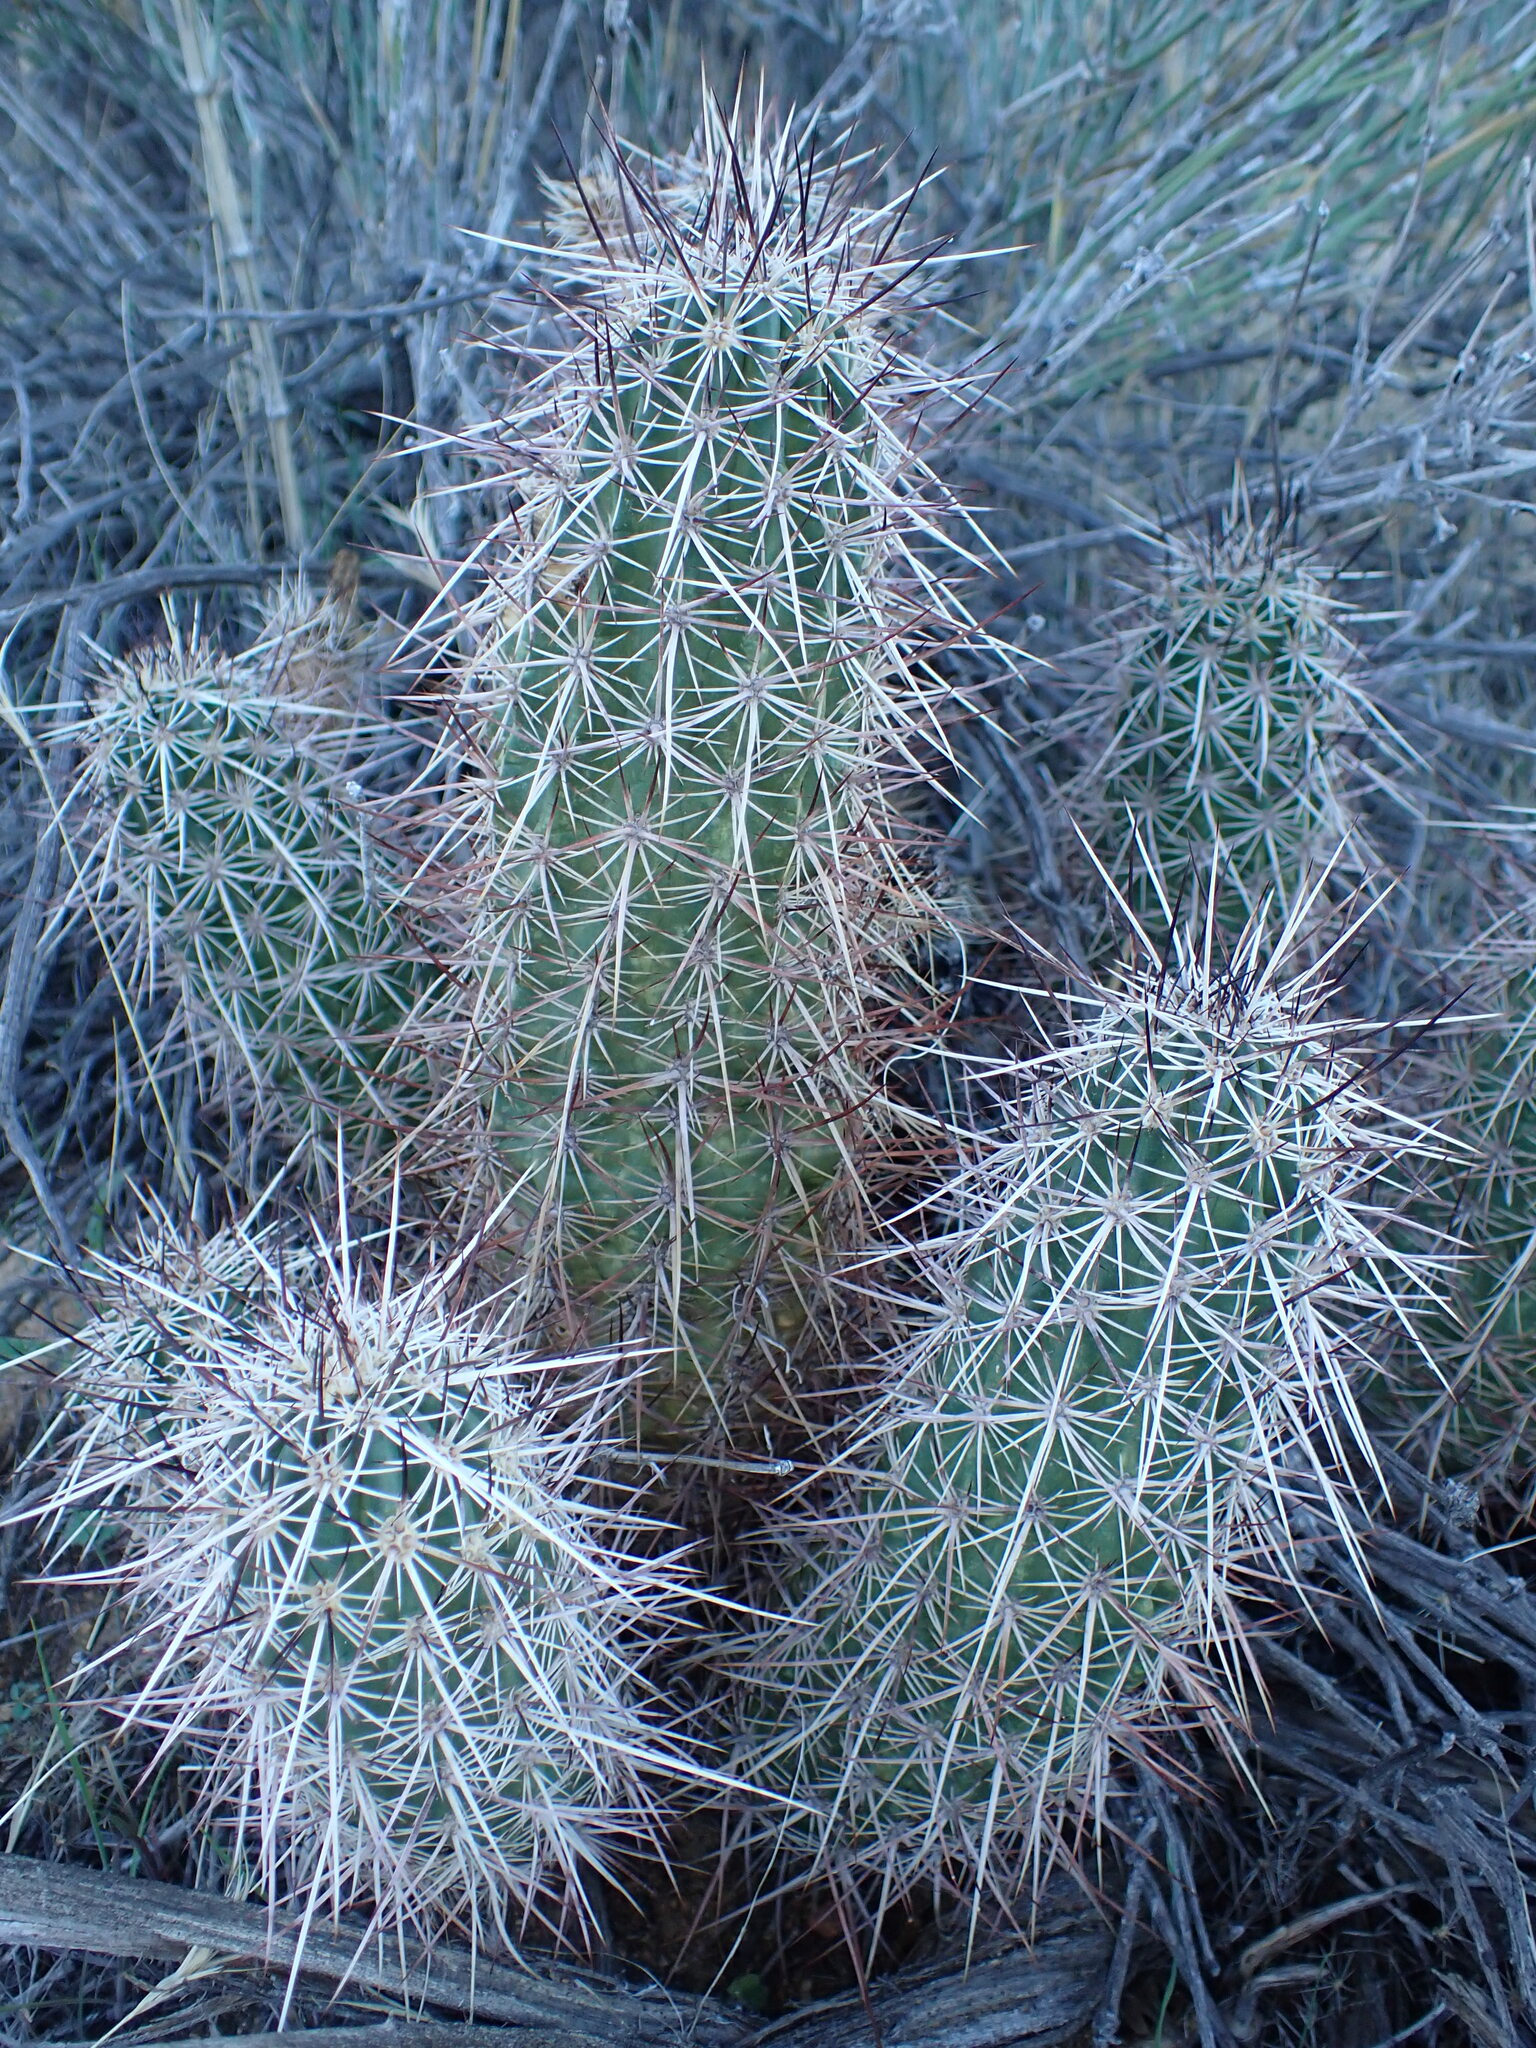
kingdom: Plantae
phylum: Tracheophyta
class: Magnoliopsida
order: Caryophyllales
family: Cactaceae
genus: Echinocereus
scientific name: Echinocereus engelmannii
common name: Engelmann's hedgehog cactus
